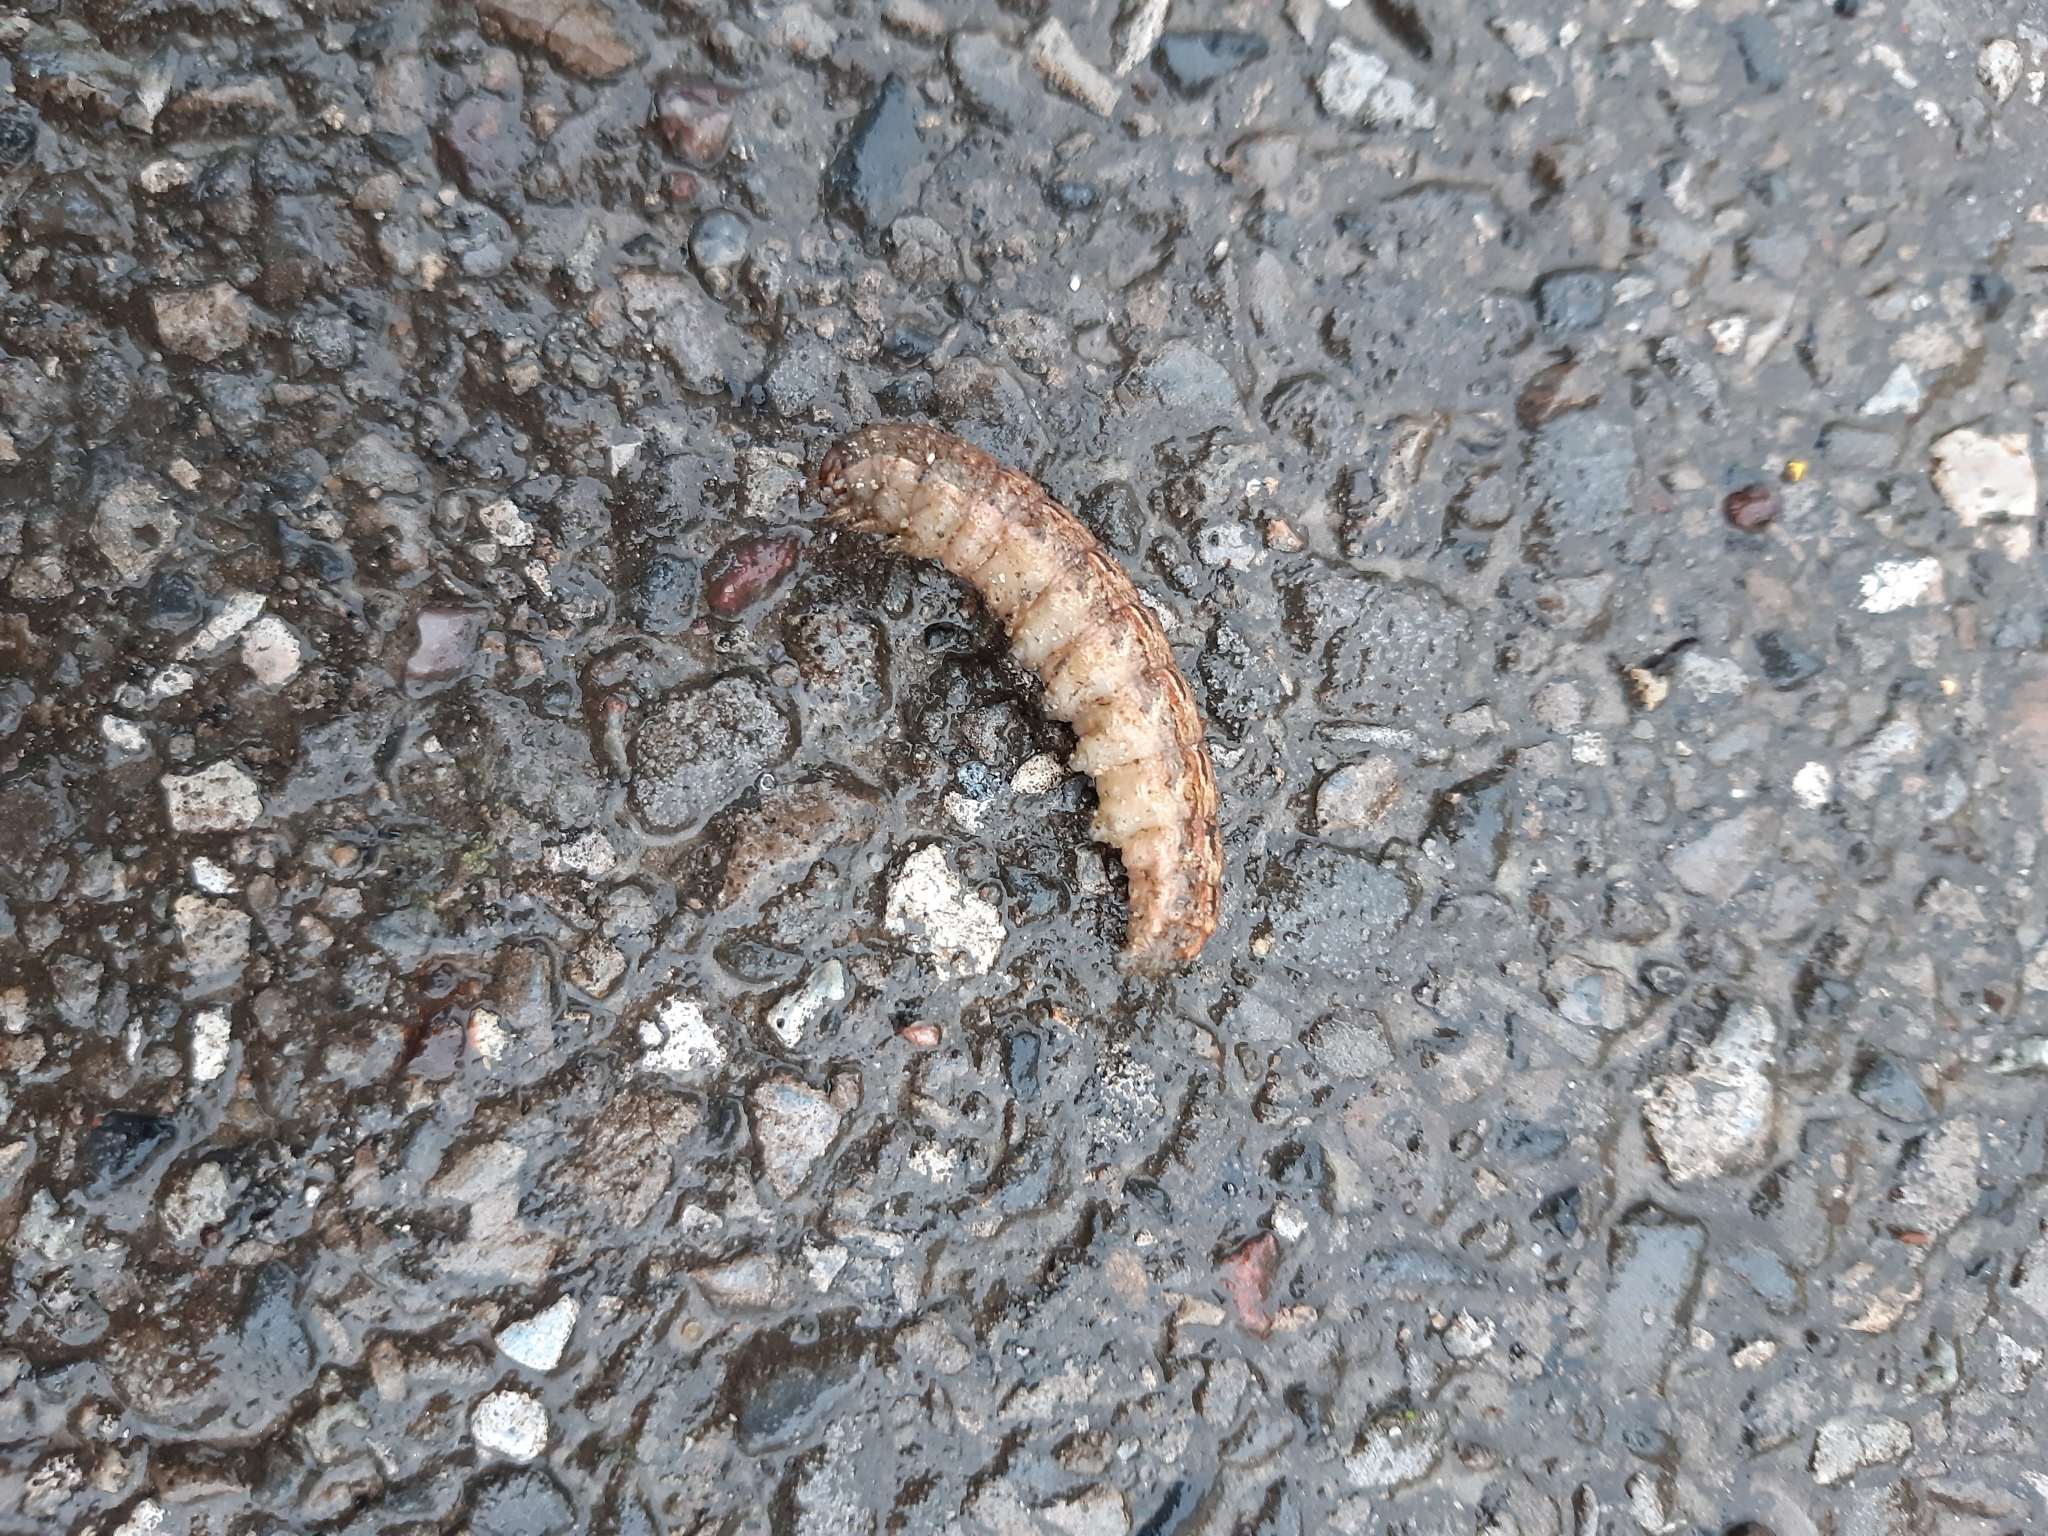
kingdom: Animalia
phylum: Arthropoda
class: Insecta
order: Lepidoptera
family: Noctuidae
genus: Noctua
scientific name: Noctua pronuba
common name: Large yellow underwing
